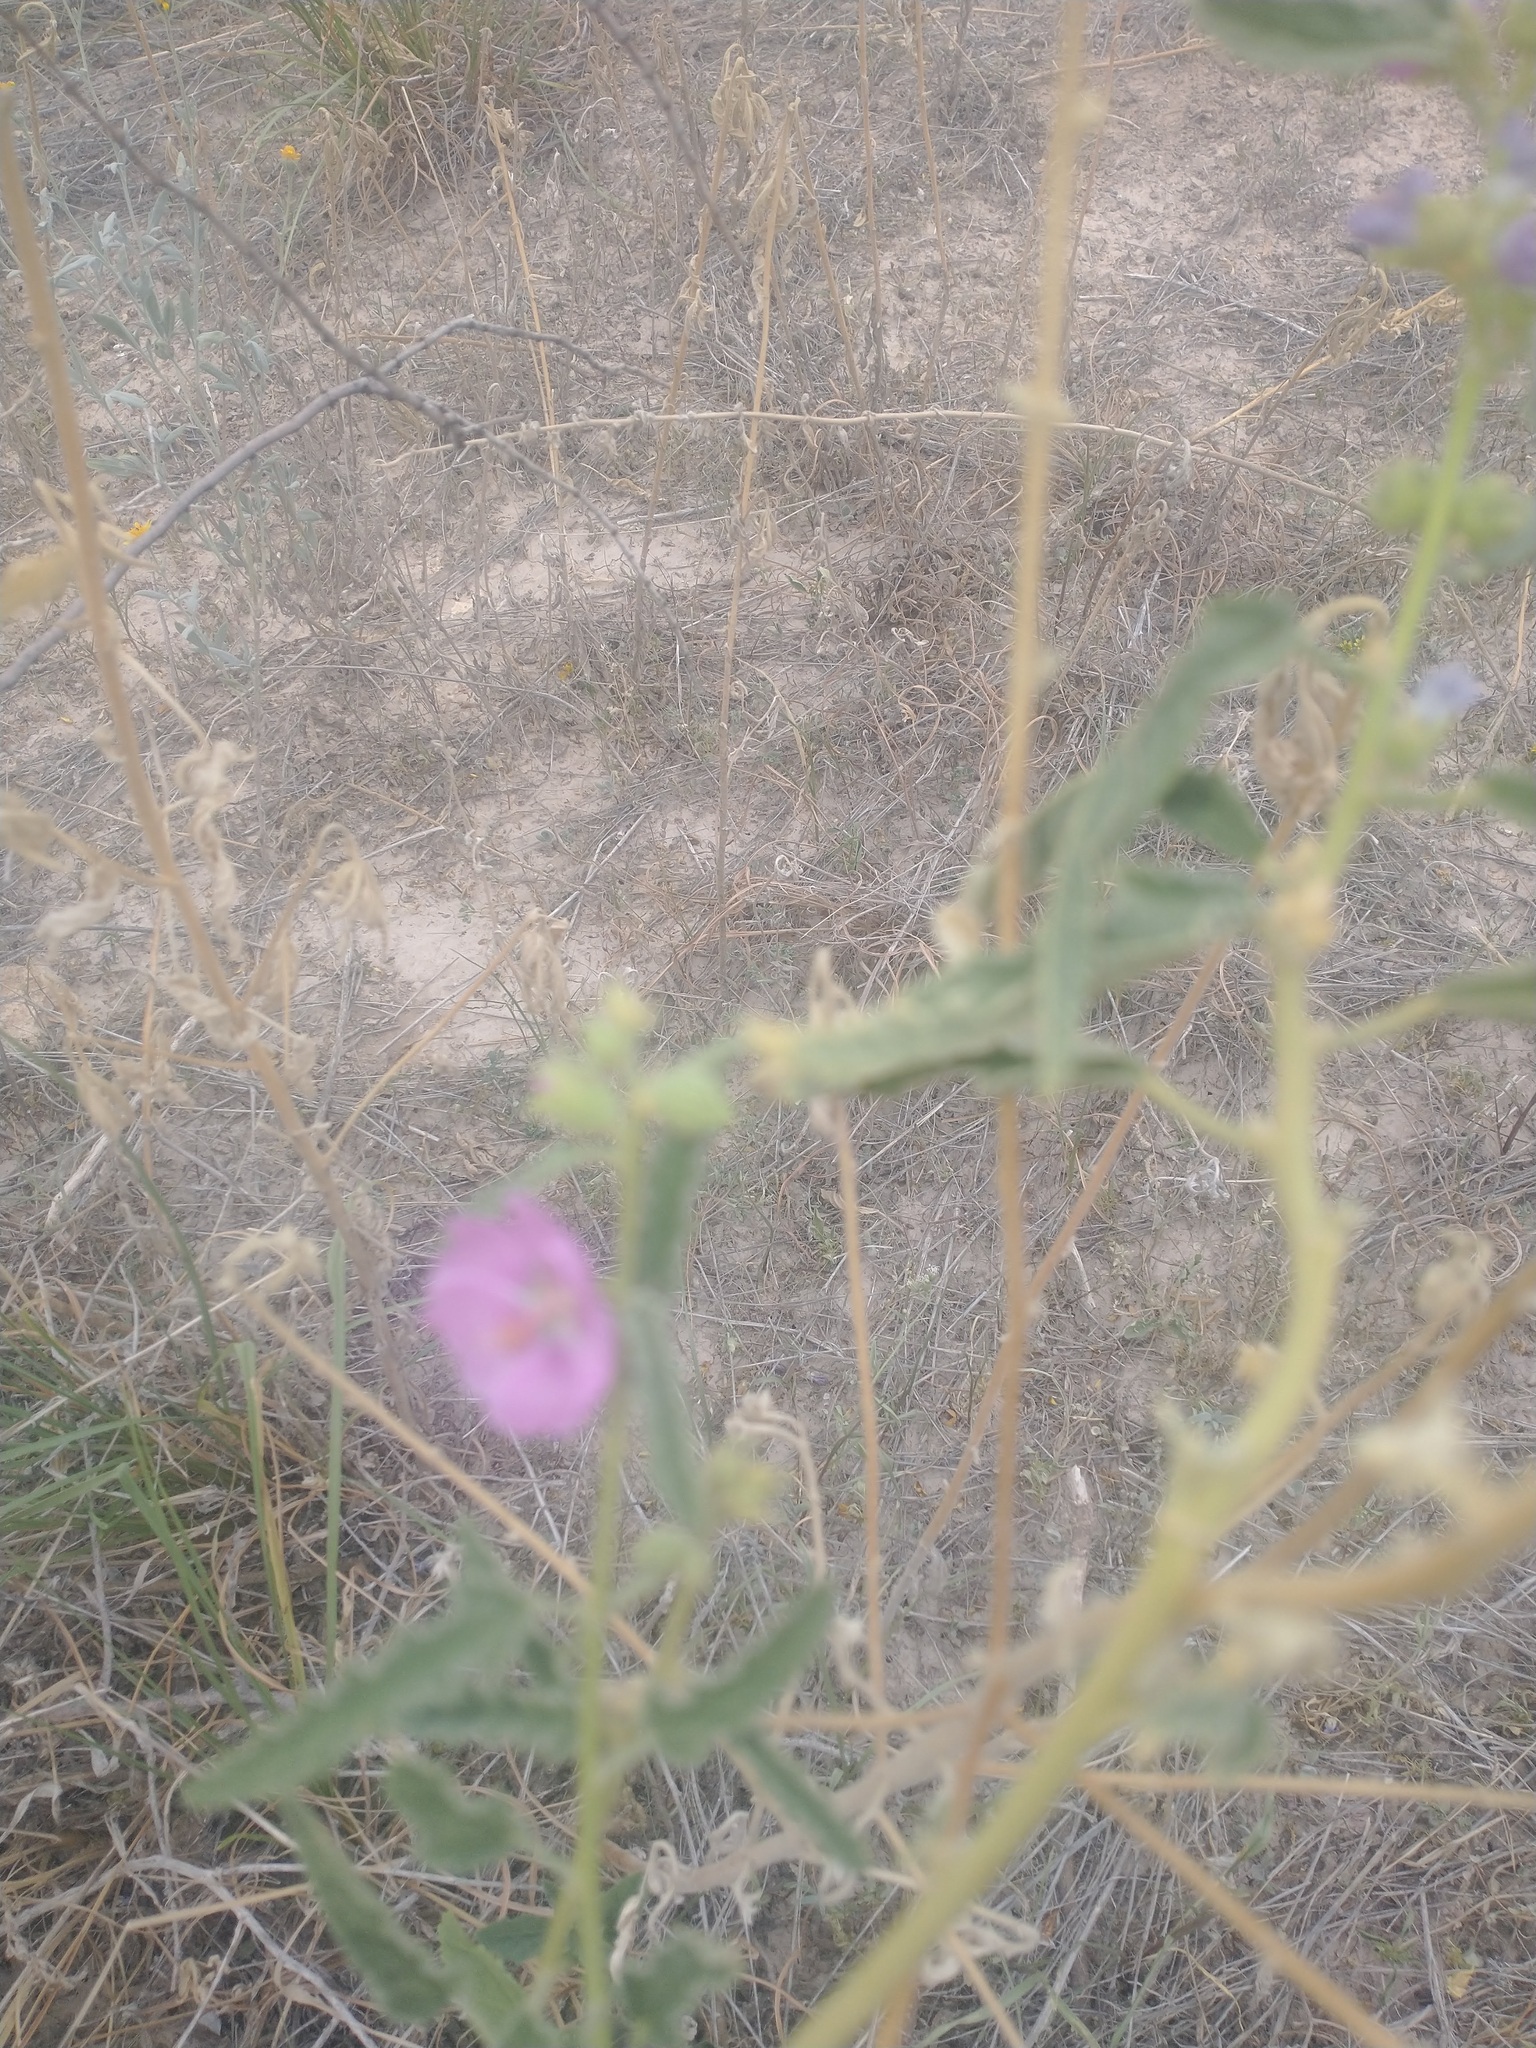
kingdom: Plantae
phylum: Tracheophyta
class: Magnoliopsida
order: Malvales
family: Malvaceae
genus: Sphaeralcea
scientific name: Sphaeralcea angustifolia
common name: Copper globe-mallow
